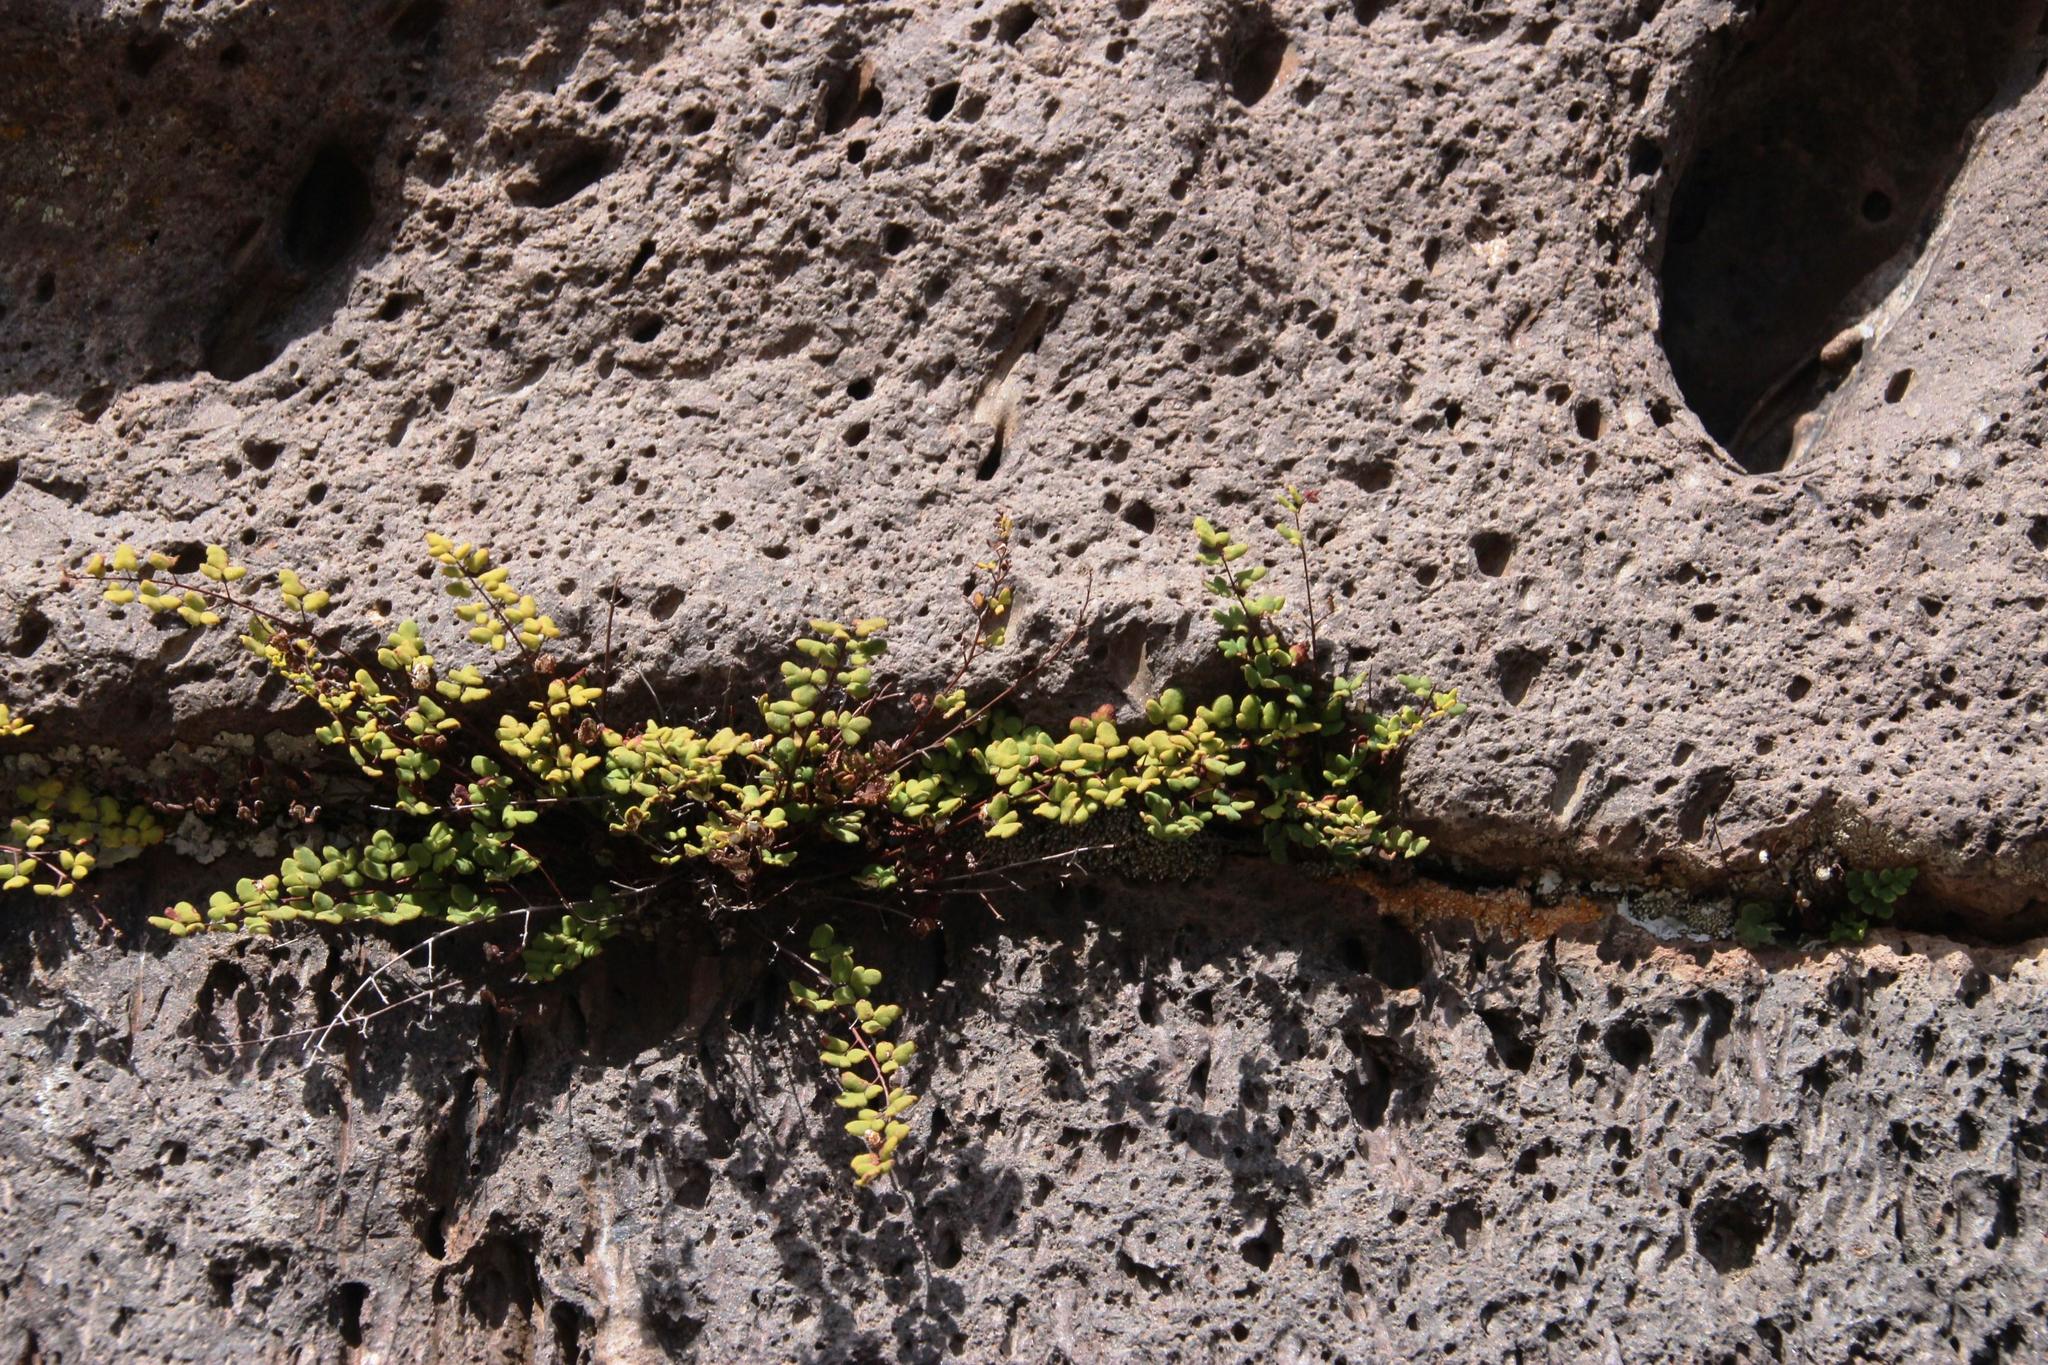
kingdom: Plantae
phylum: Tracheophyta
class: Polypodiopsida
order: Polypodiales
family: Pteridaceae
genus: Argyrochosma
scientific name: Argyrochosma nivea
